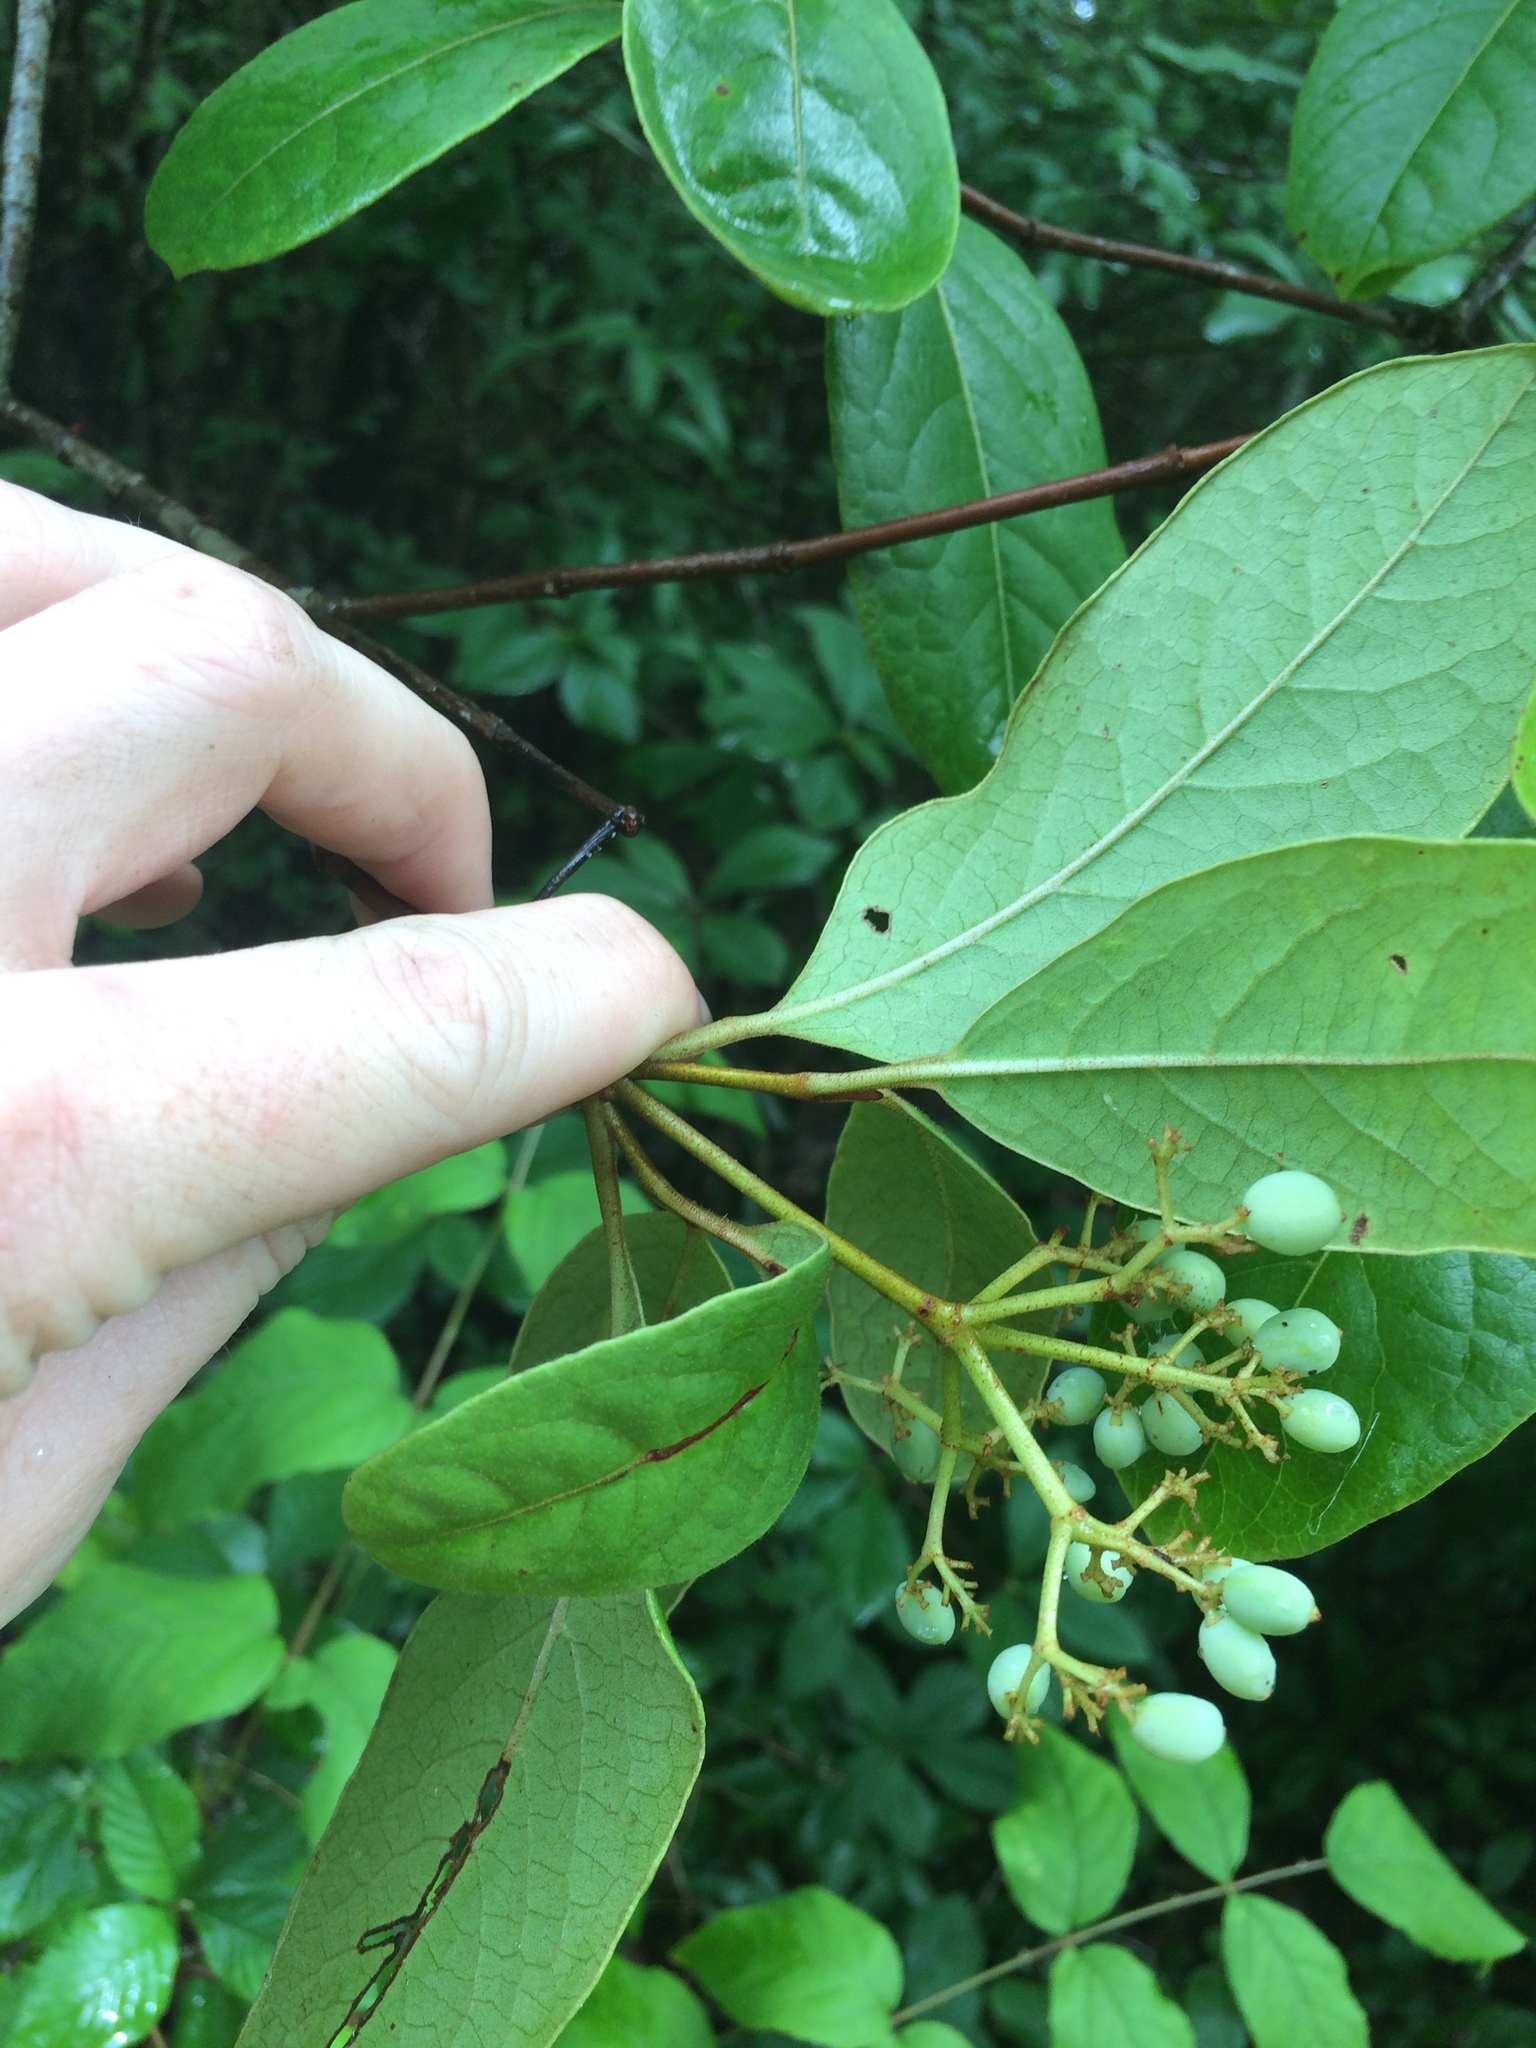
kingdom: Plantae
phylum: Tracheophyta
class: Magnoliopsida
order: Dipsacales
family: Viburnaceae
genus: Viburnum
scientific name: Viburnum nudum
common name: Possum haw
